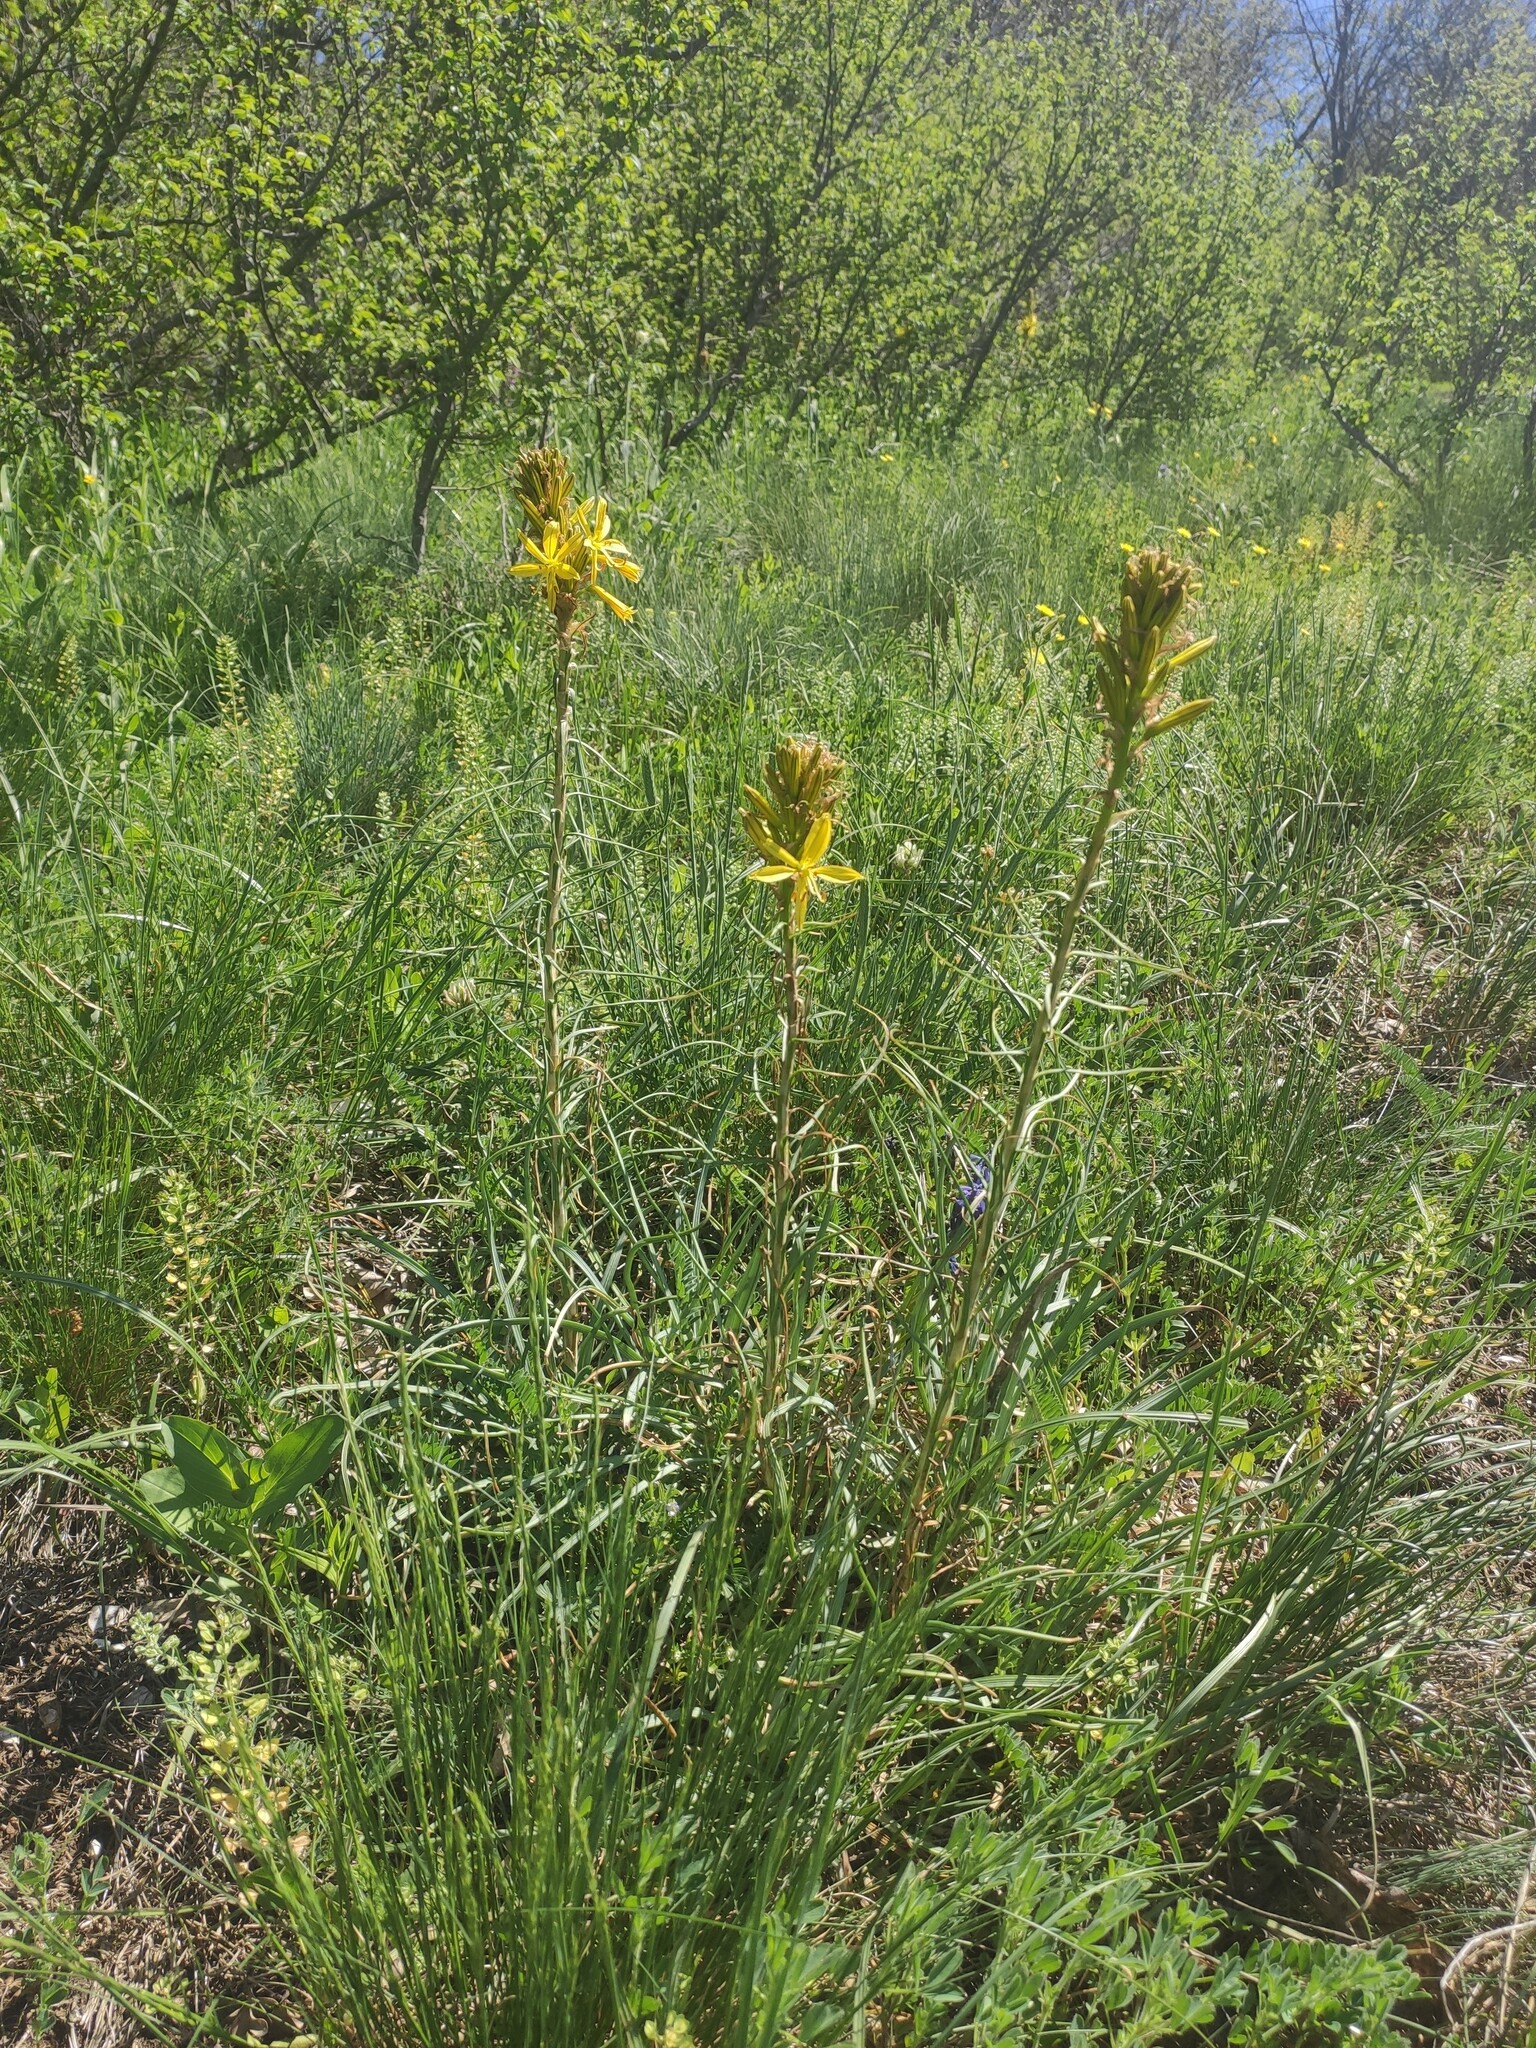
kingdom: Plantae
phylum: Tracheophyta
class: Liliopsida
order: Asparagales
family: Asphodelaceae
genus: Asphodeline
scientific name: Asphodeline lutea
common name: Yellow asphodel
